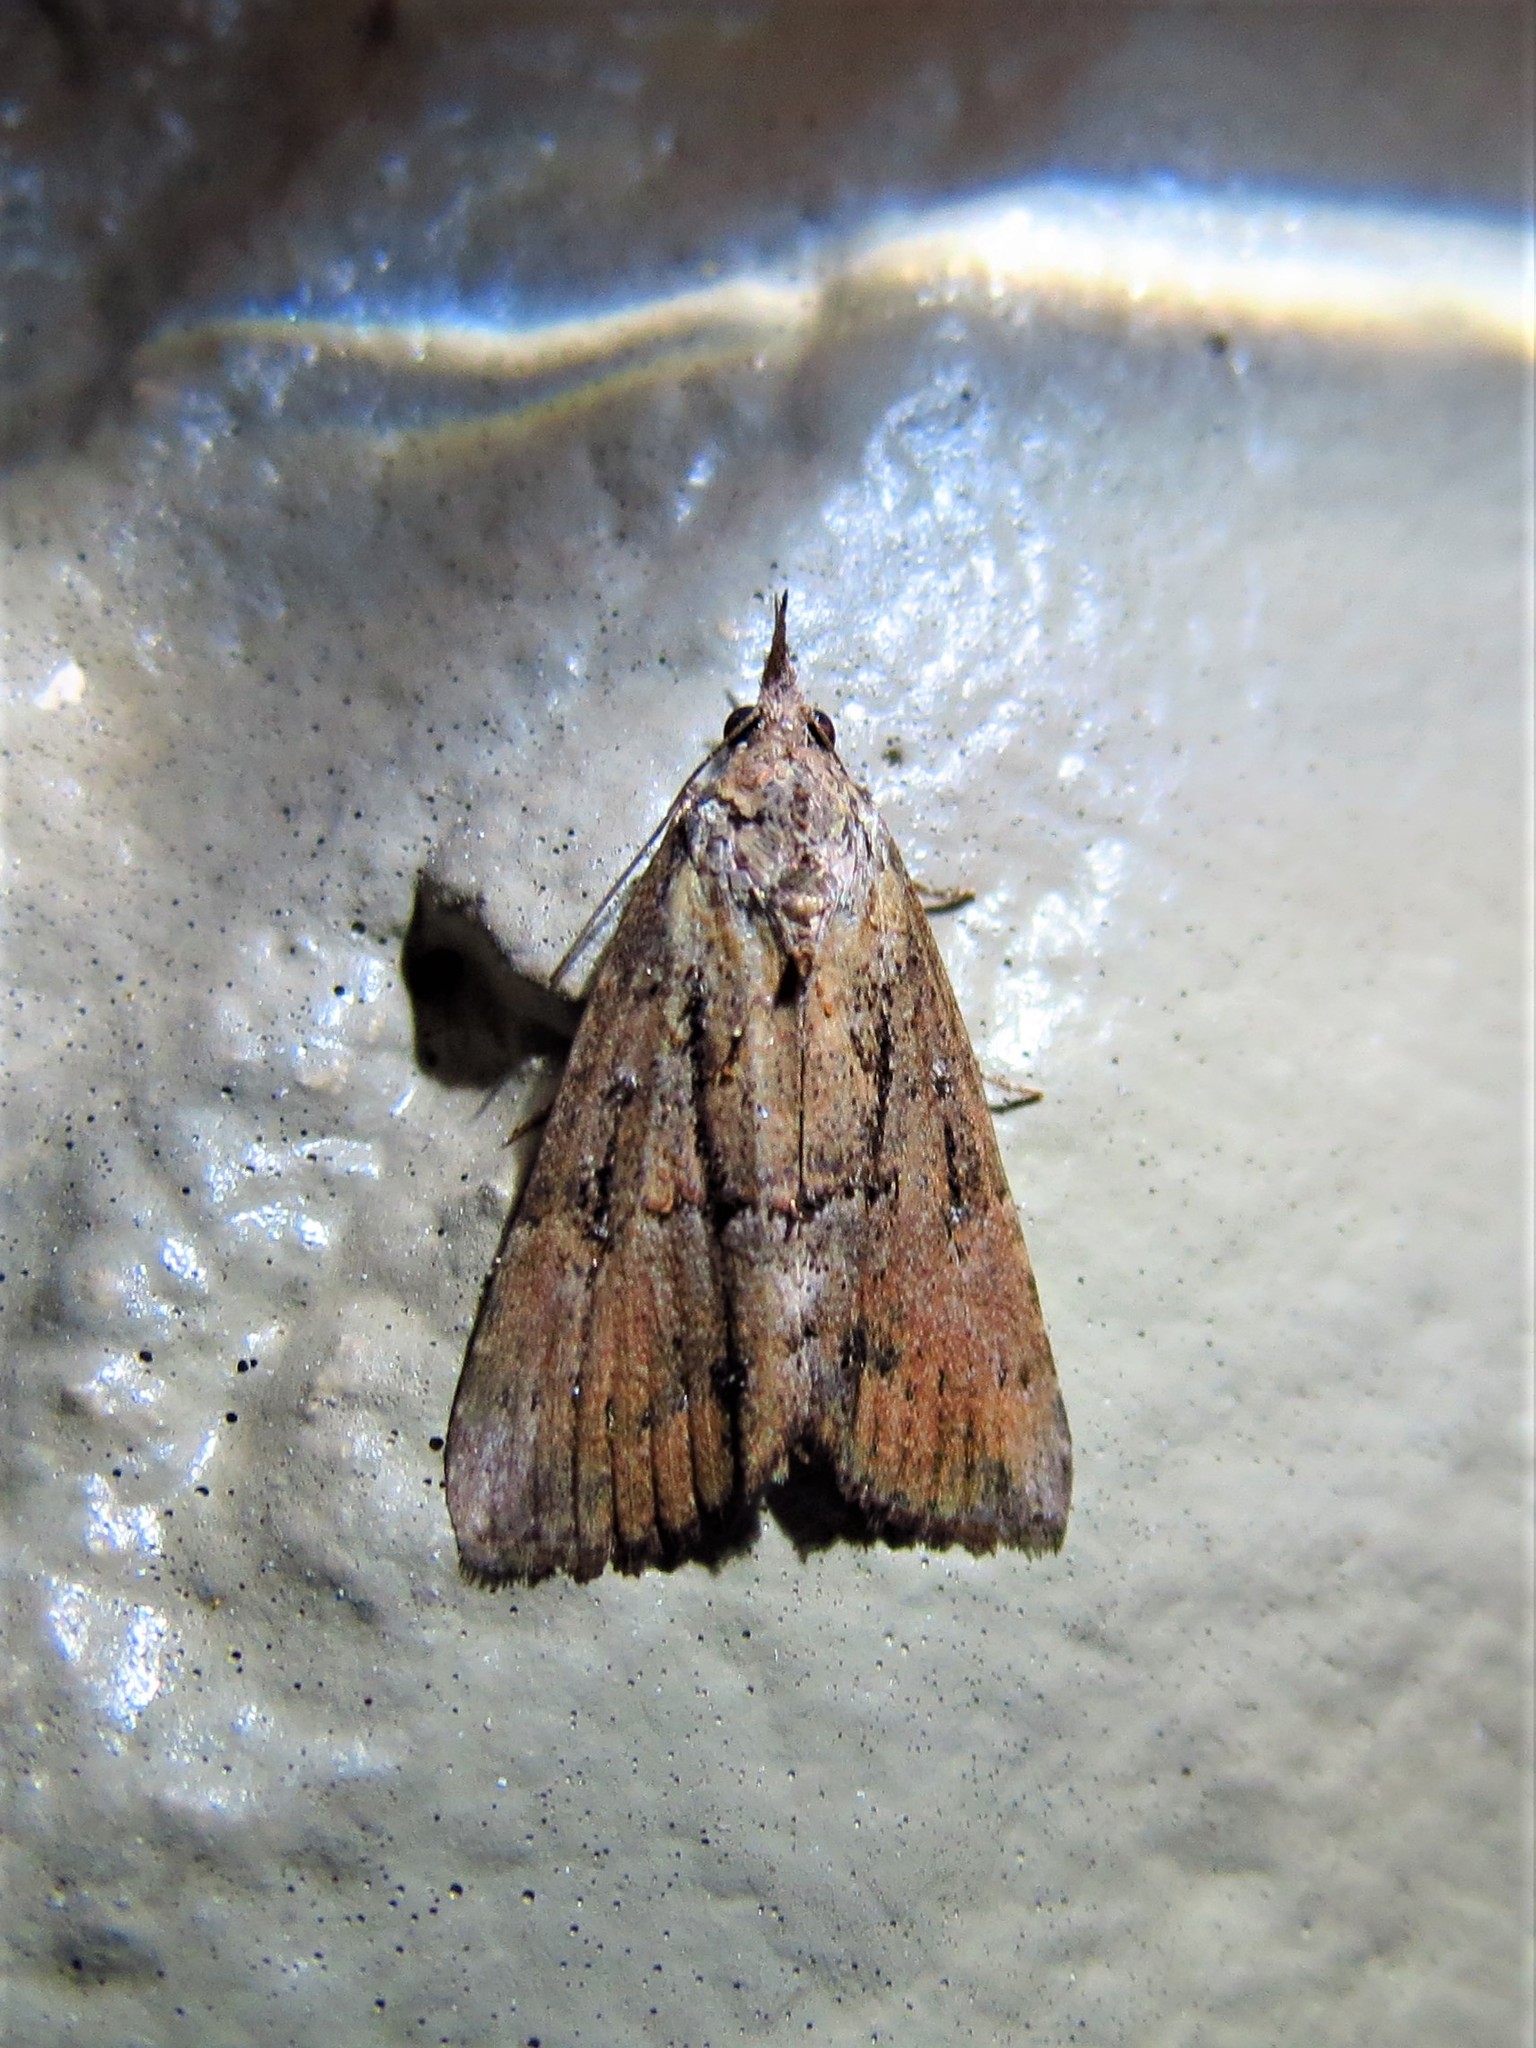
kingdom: Animalia
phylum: Arthropoda
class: Insecta
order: Lepidoptera
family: Erebidae
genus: Hypena
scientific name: Hypena scabra
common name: Green cloverworm
